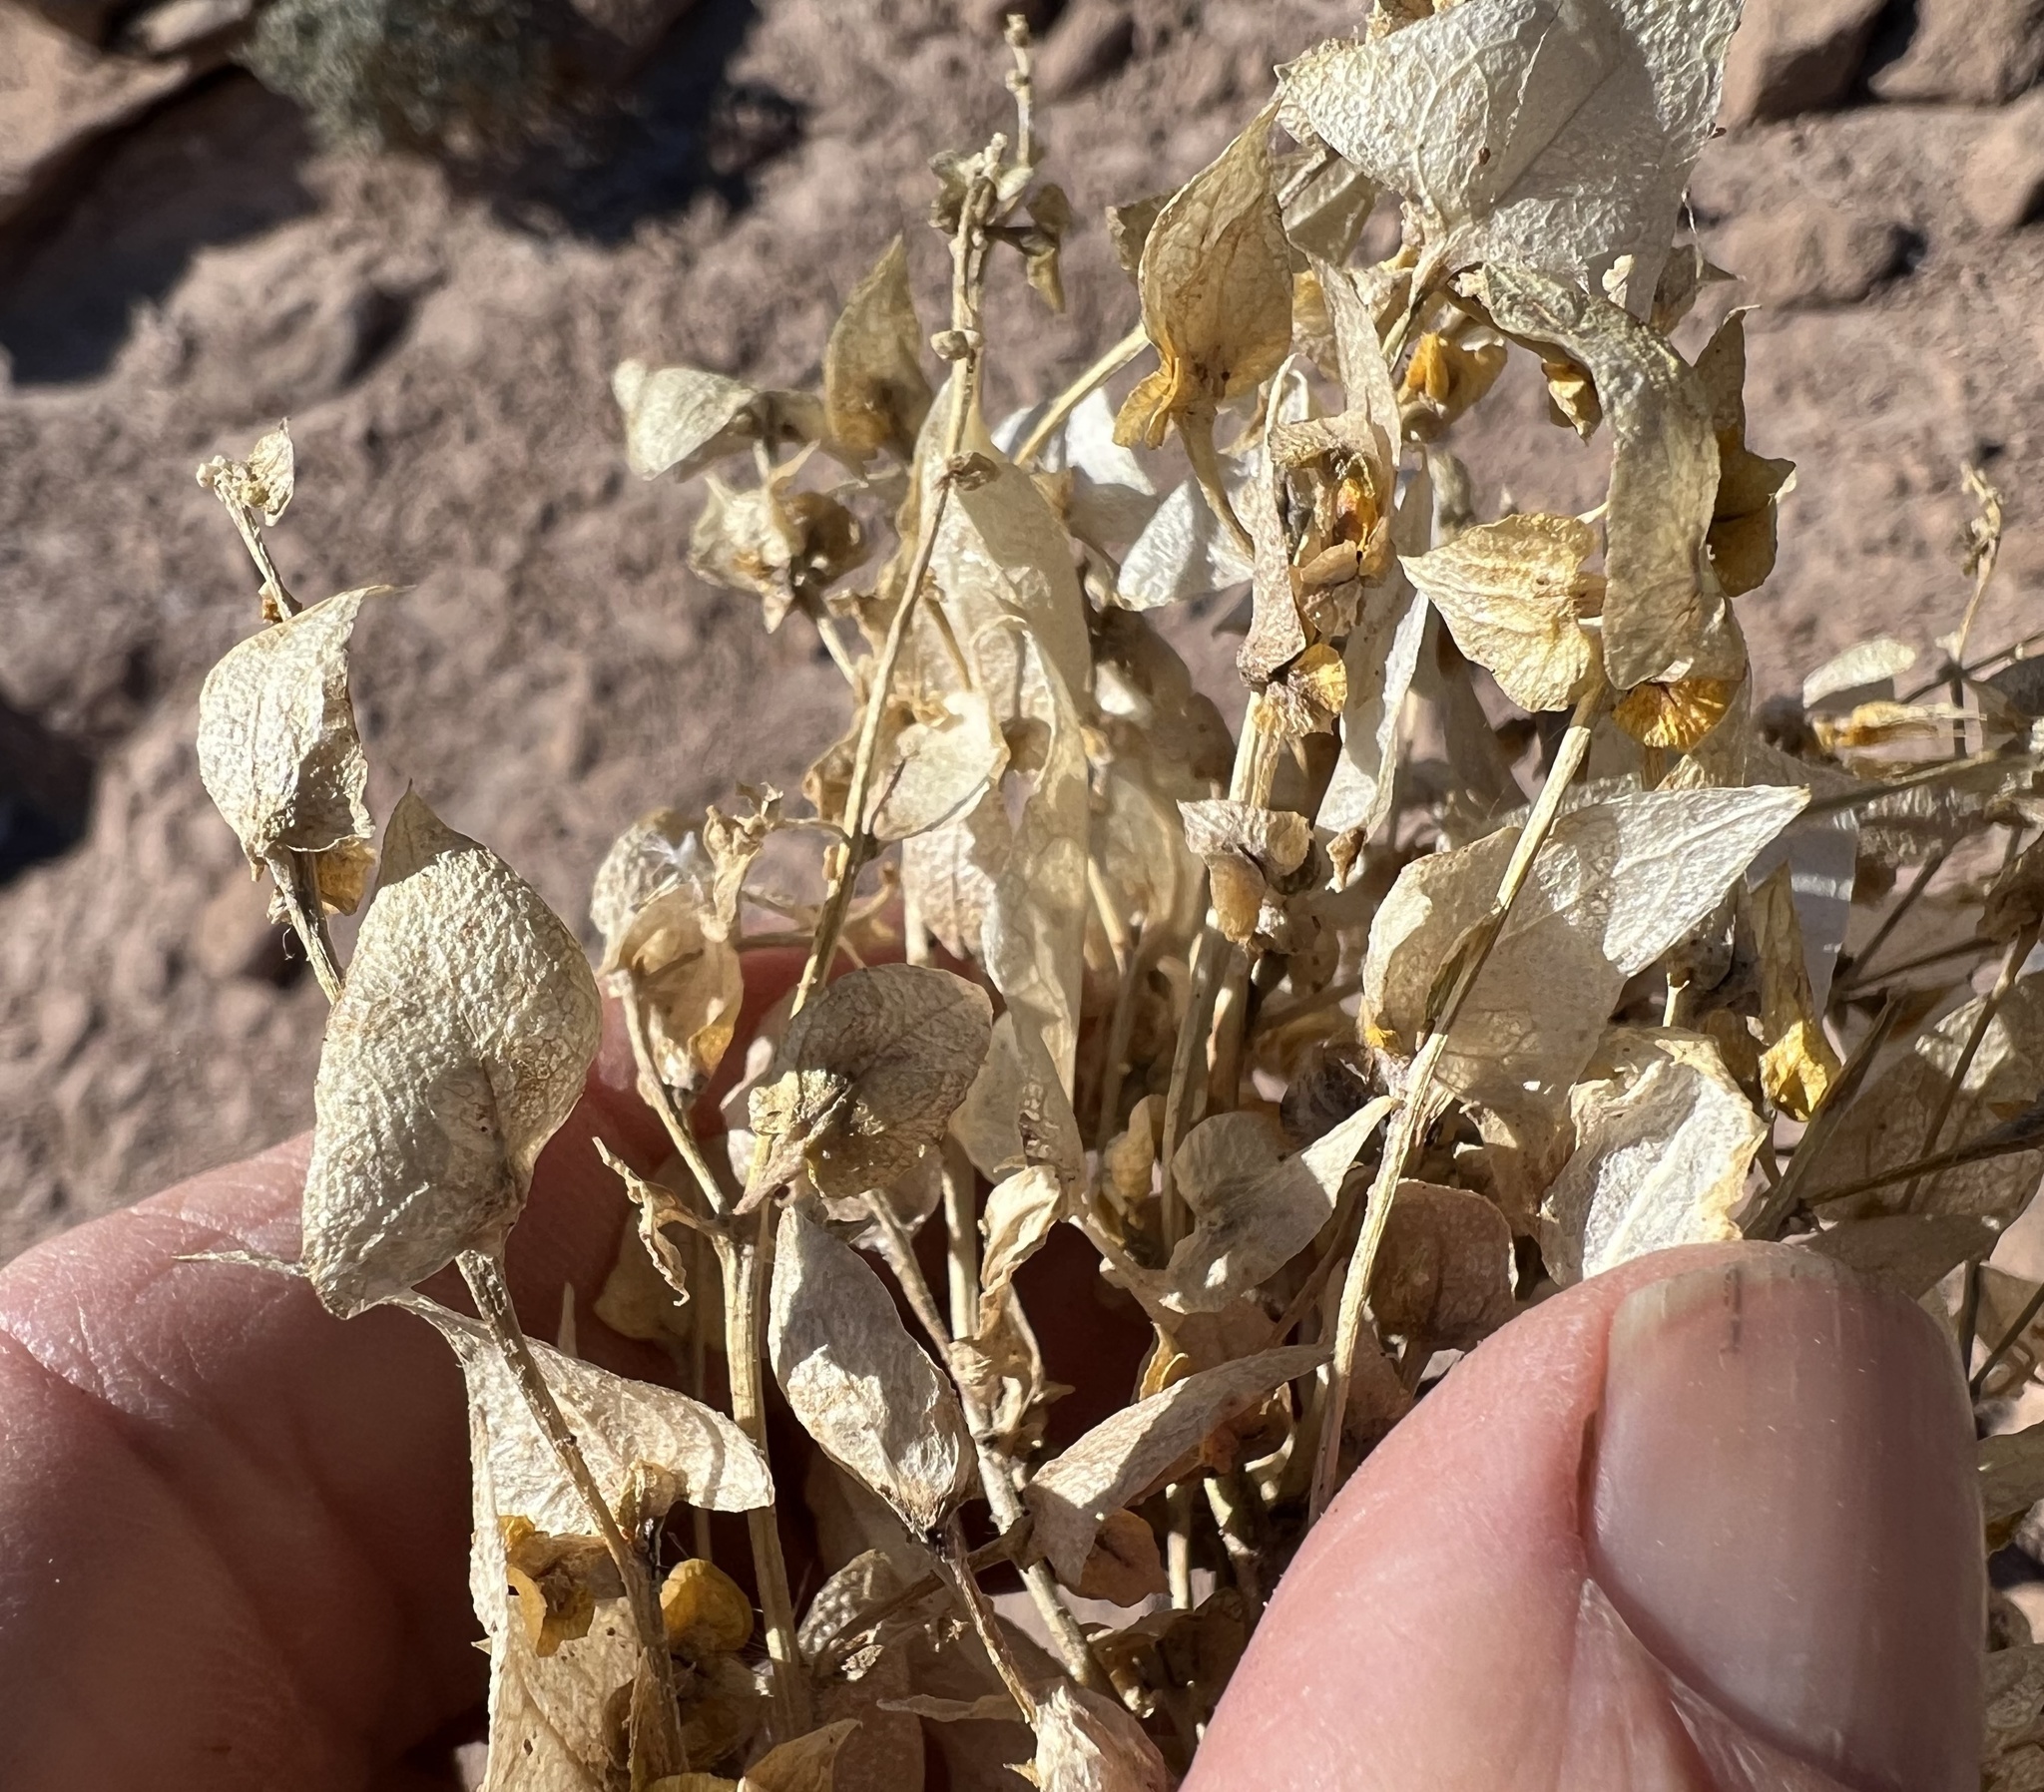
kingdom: Plantae
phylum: Tracheophyta
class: Magnoliopsida
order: Caryophyllales
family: Amaranthaceae
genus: Stutzia
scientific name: Stutzia covillei
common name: Coville's orach
